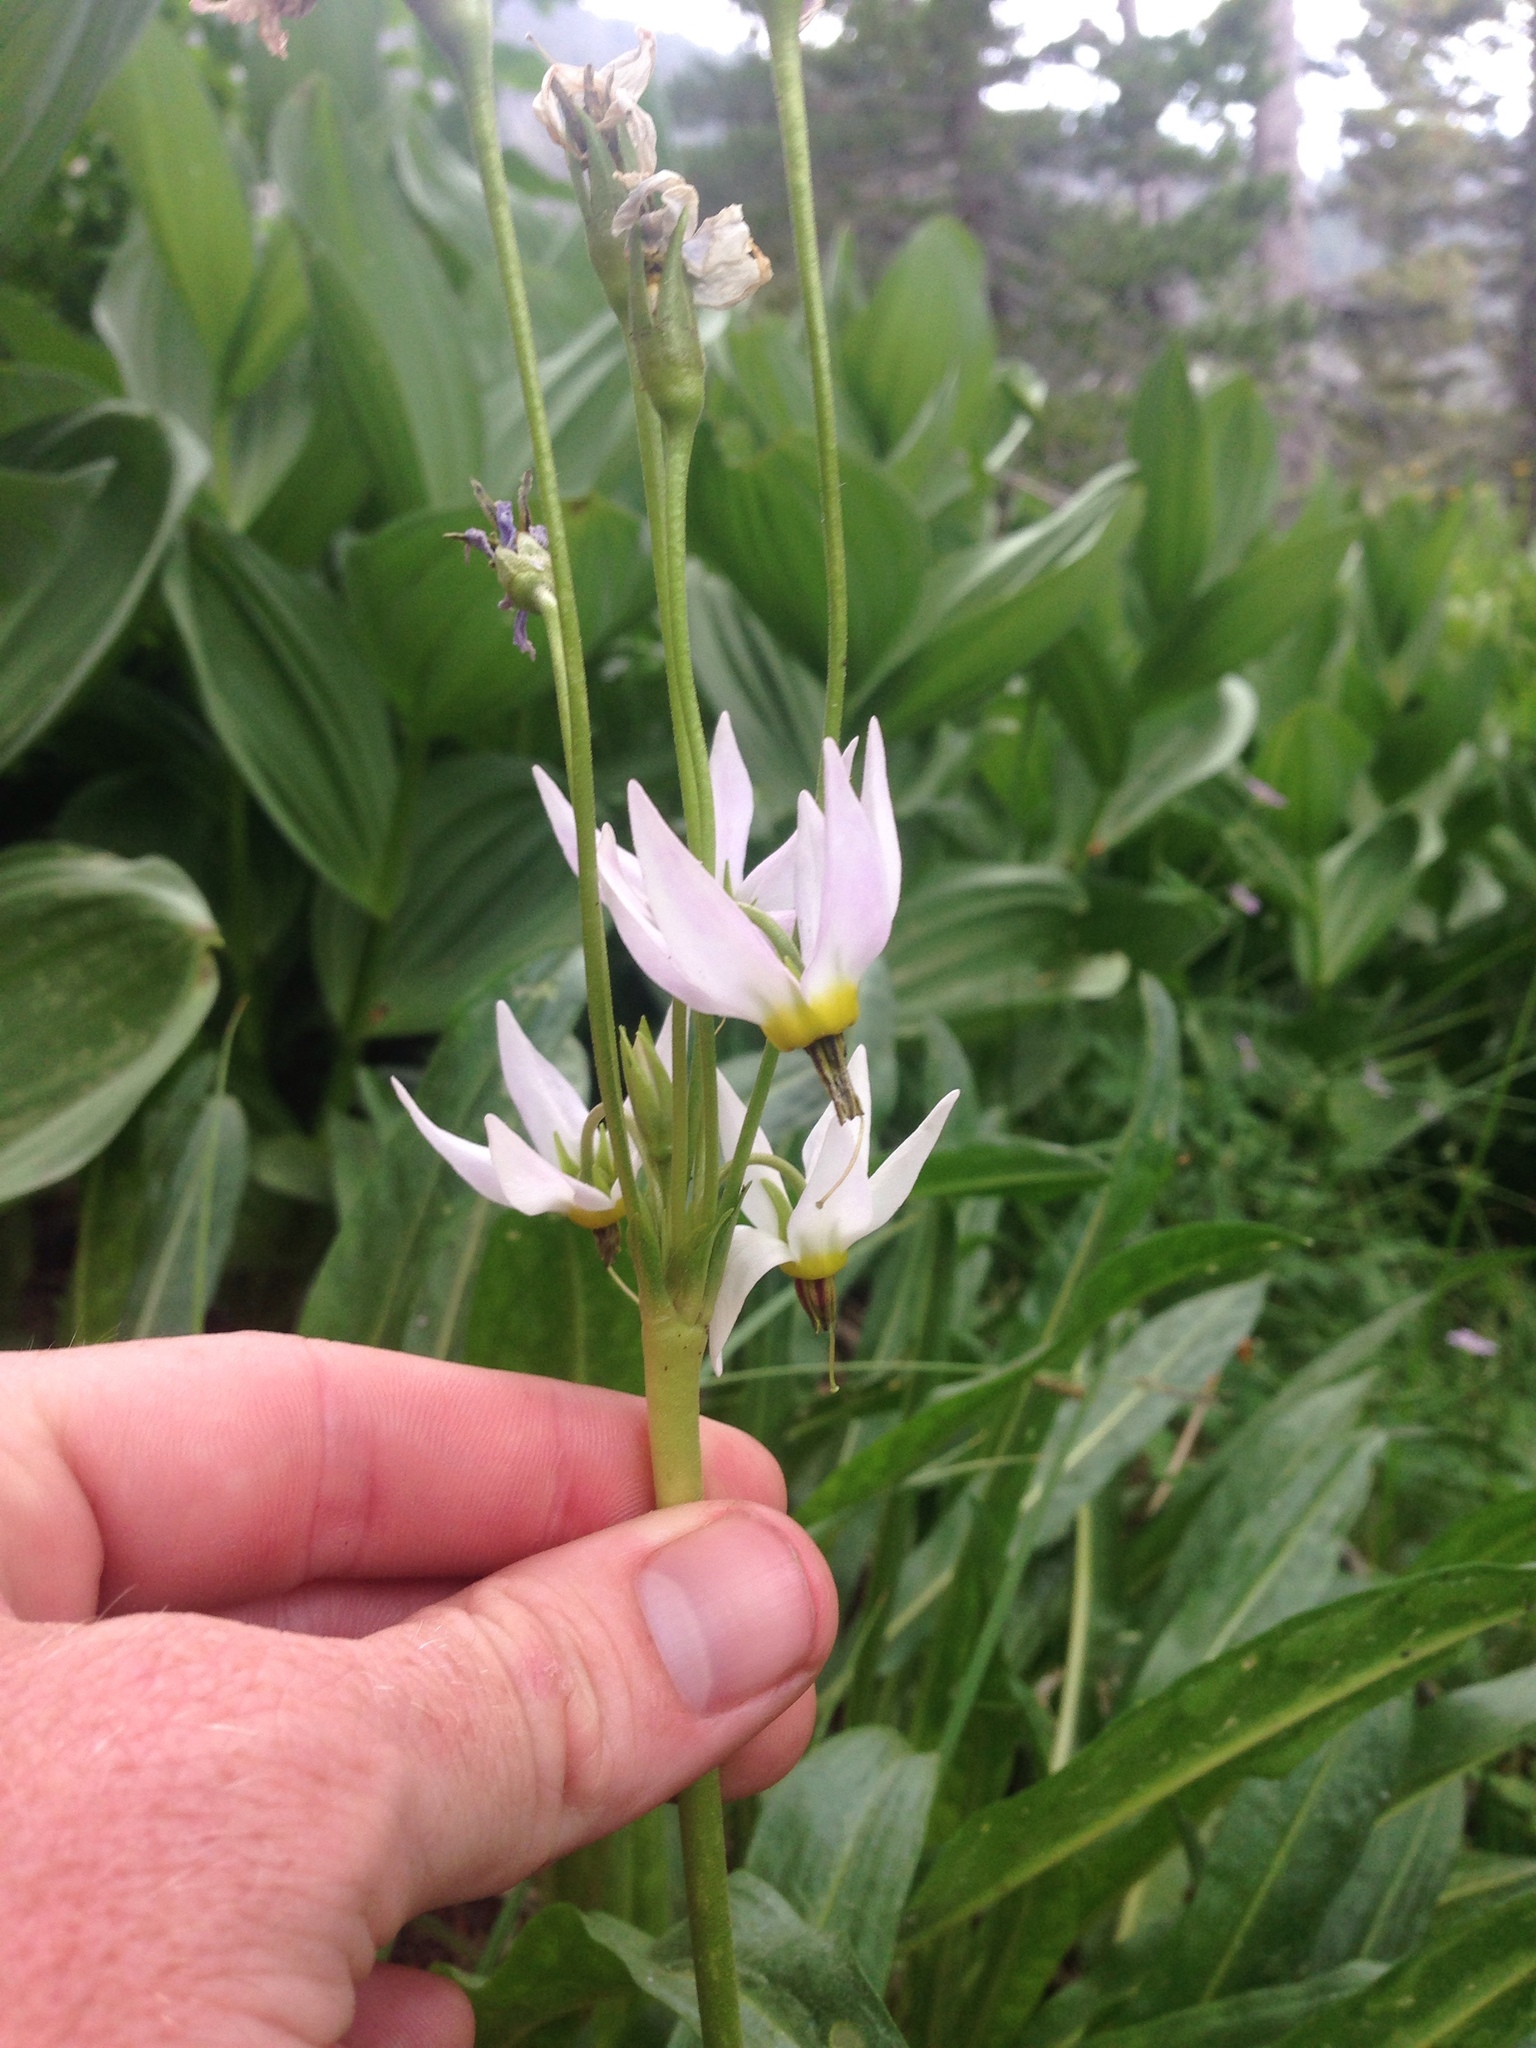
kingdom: Plantae
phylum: Tracheophyta
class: Magnoliopsida
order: Ericales
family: Primulaceae
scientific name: Primulaceae
